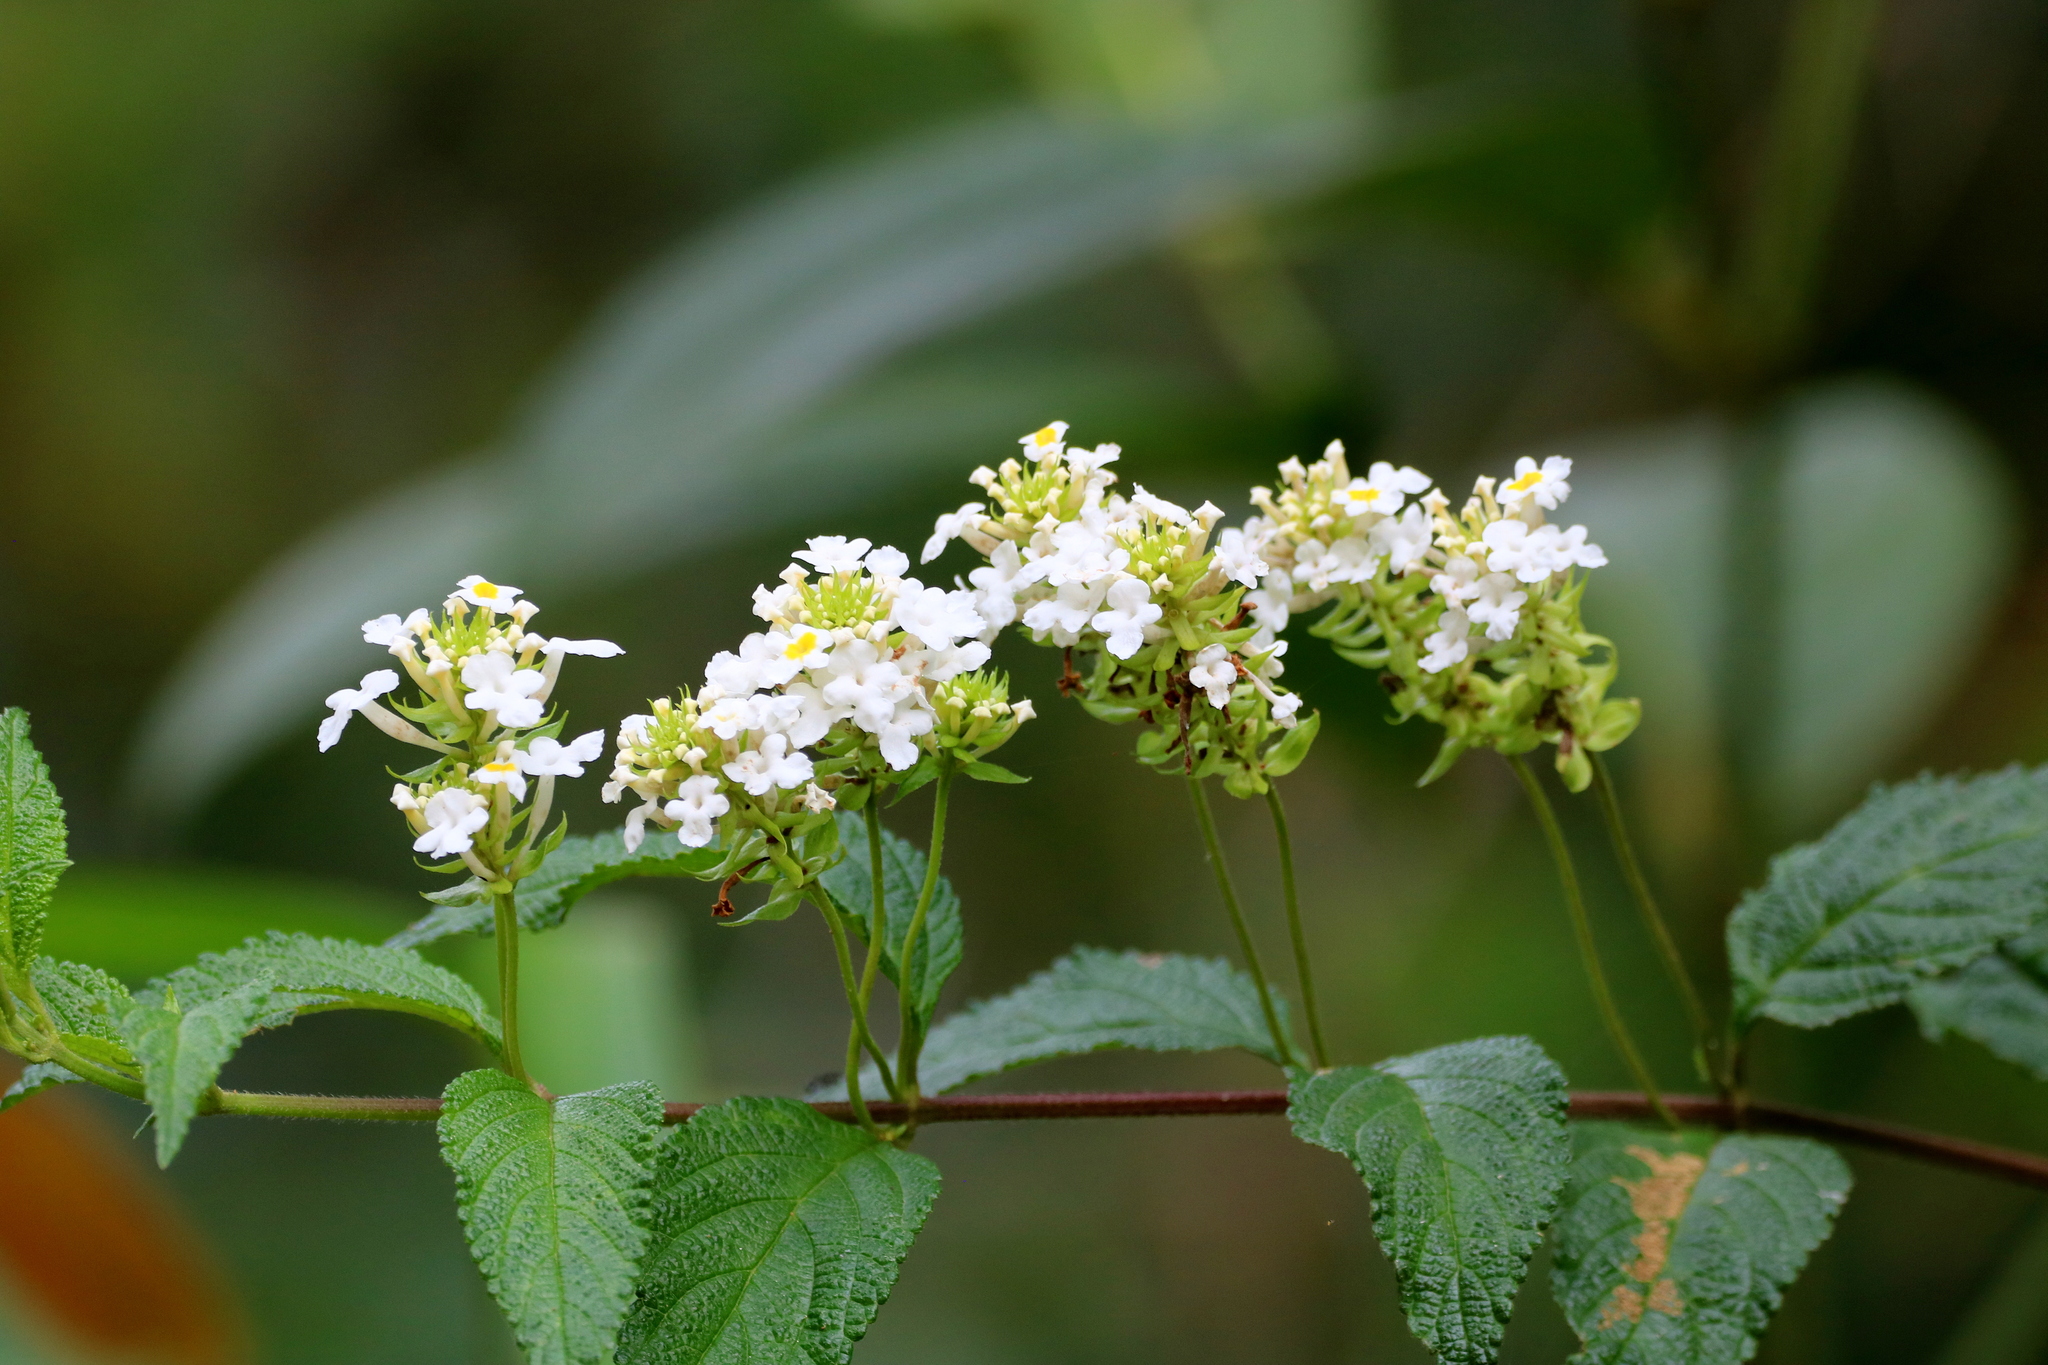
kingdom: Plantae
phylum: Tracheophyta
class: Magnoliopsida
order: Lamiales
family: Verbenaceae
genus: Lantana
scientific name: Lantana undulata
